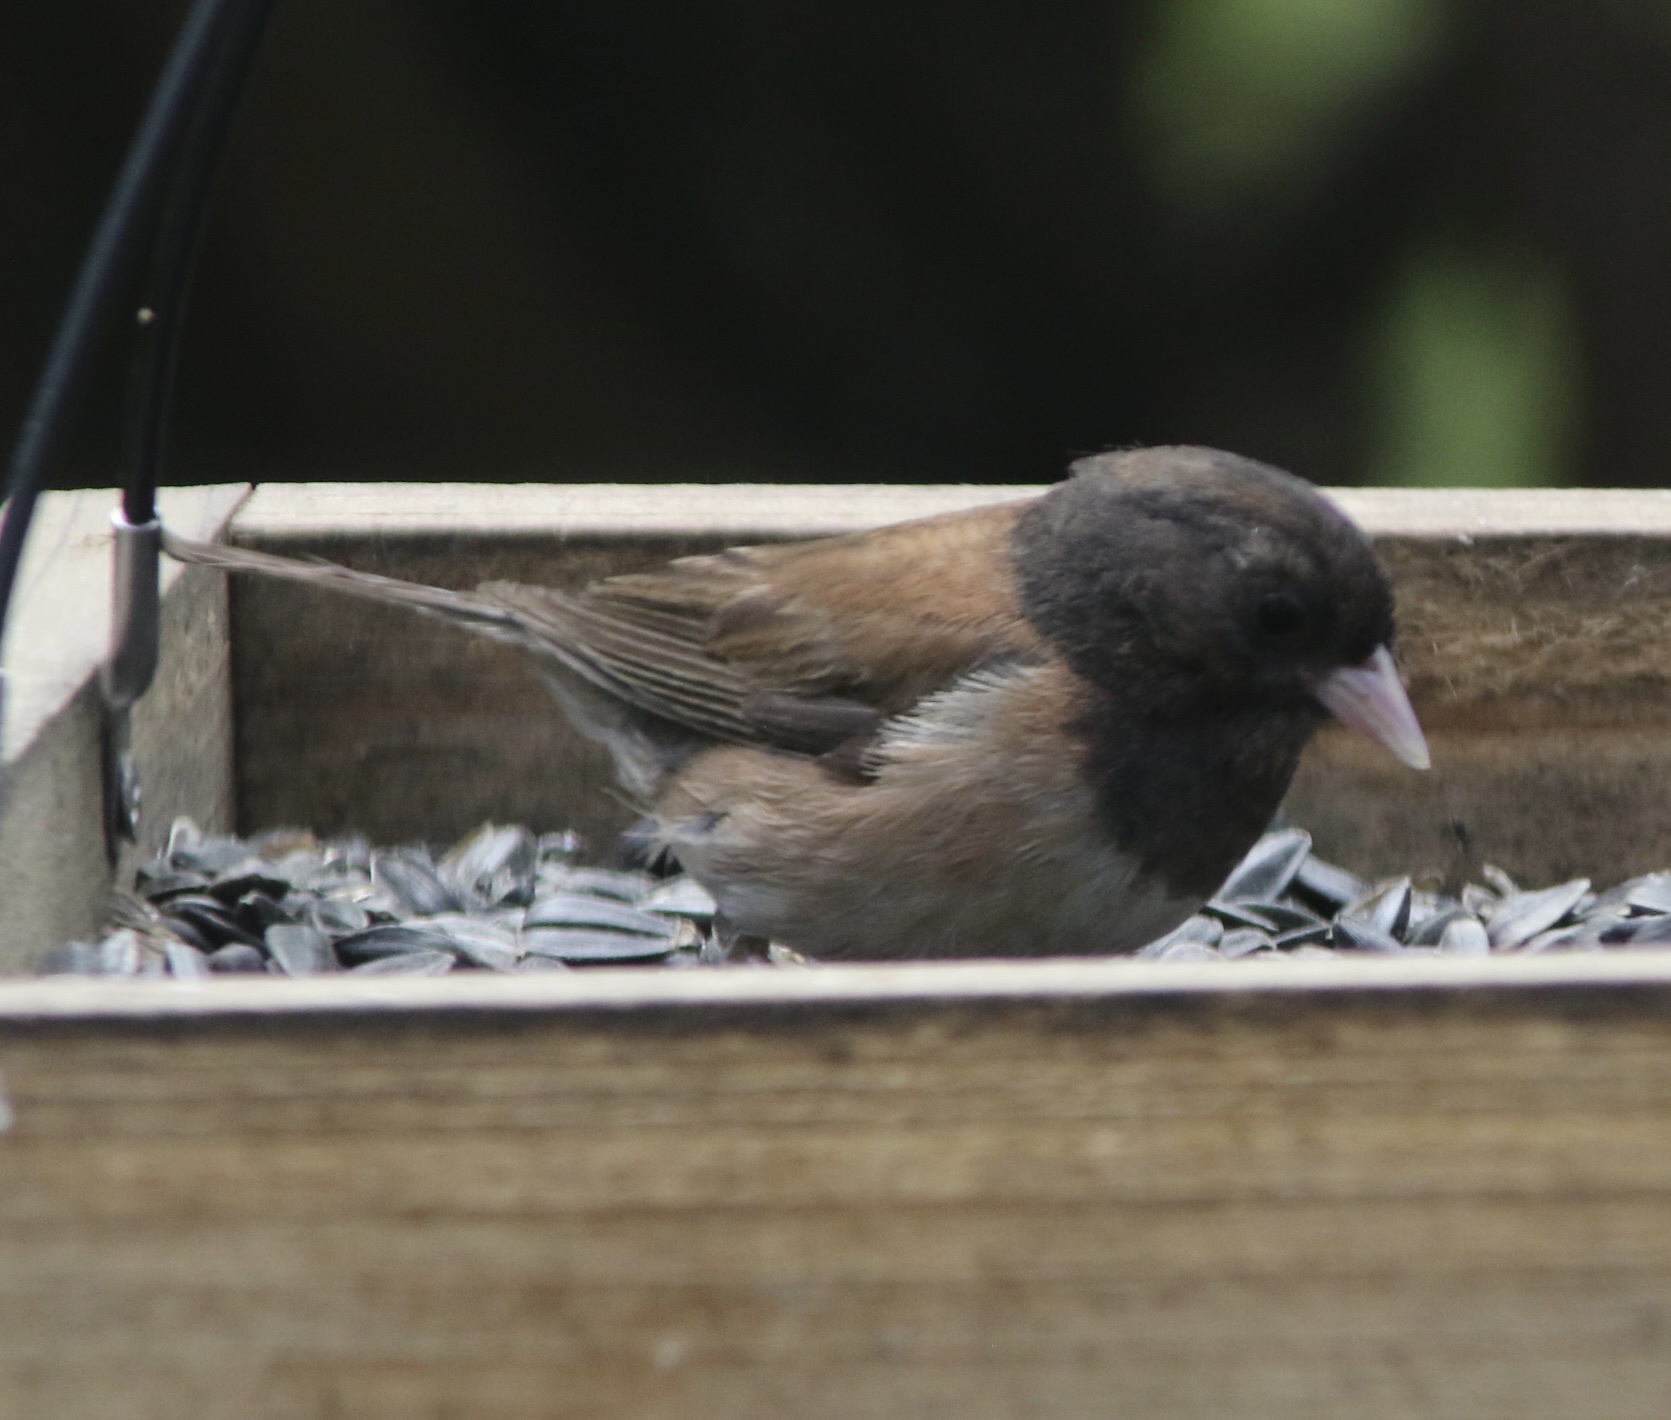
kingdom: Animalia
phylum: Chordata
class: Aves
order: Passeriformes
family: Passerellidae
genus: Junco
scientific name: Junco hyemalis
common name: Dark-eyed junco
